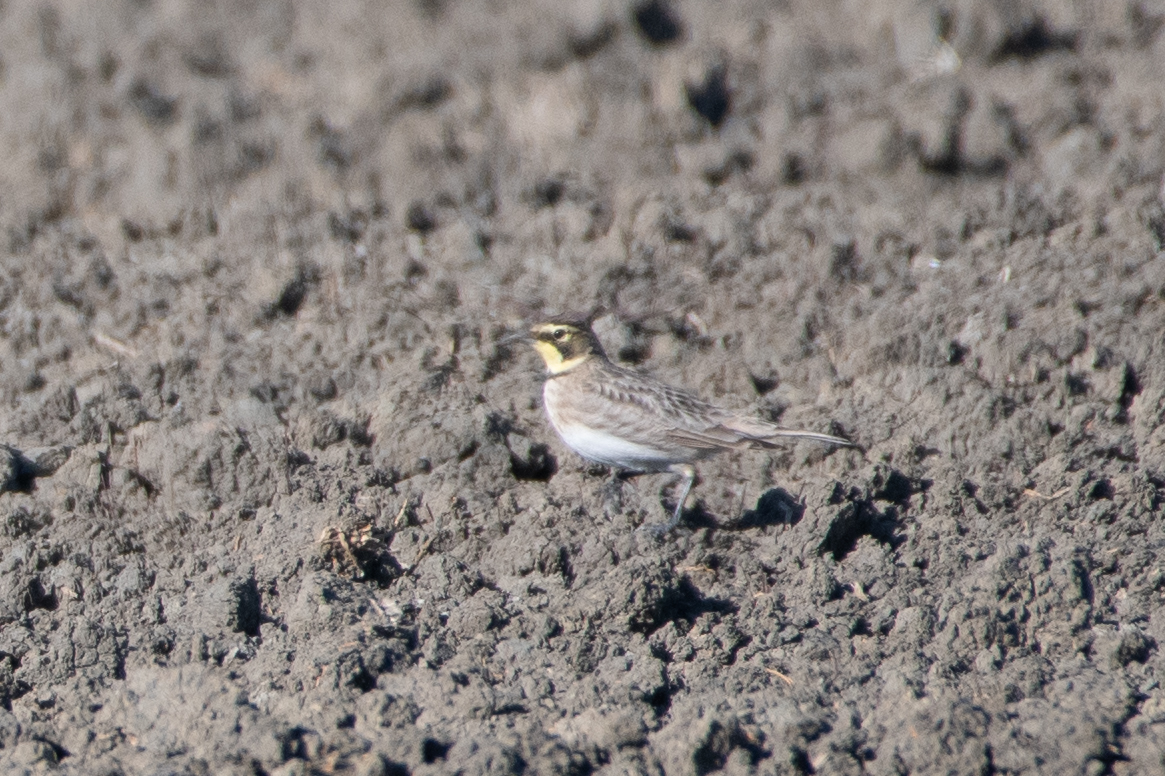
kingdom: Animalia
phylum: Chordata
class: Aves
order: Passeriformes
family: Alaudidae
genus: Eremophila
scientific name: Eremophila alpestris
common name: Horned lark
